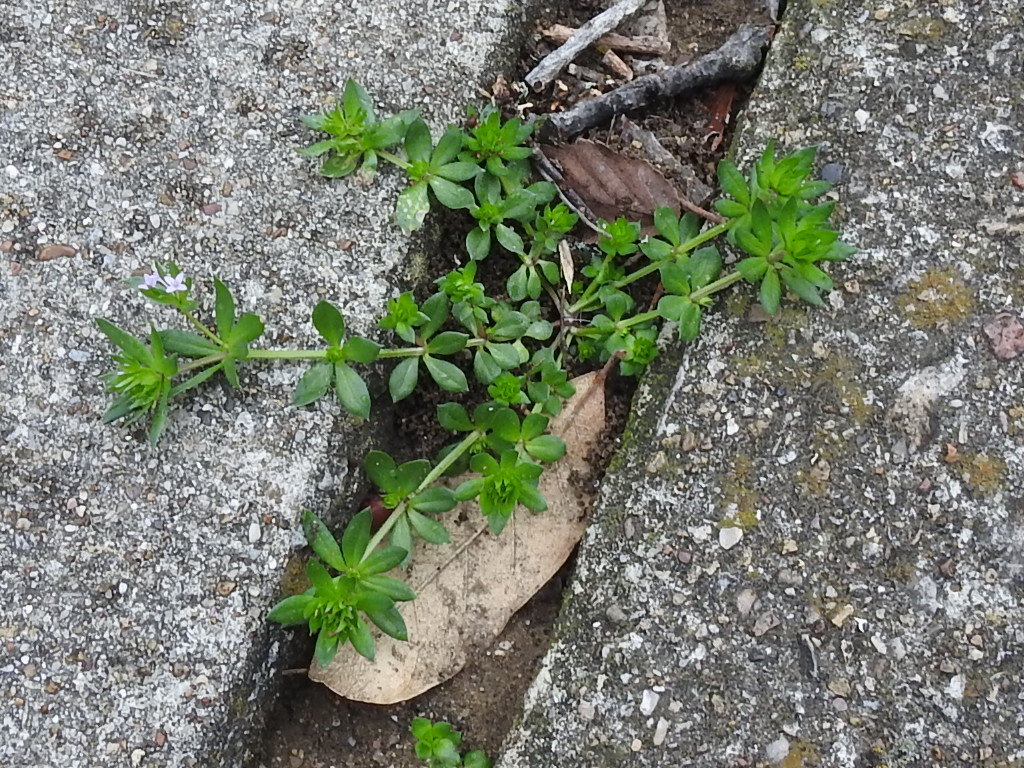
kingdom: Plantae
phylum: Tracheophyta
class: Magnoliopsida
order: Gentianales
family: Rubiaceae
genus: Sherardia
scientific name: Sherardia arvensis
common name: Field madder
